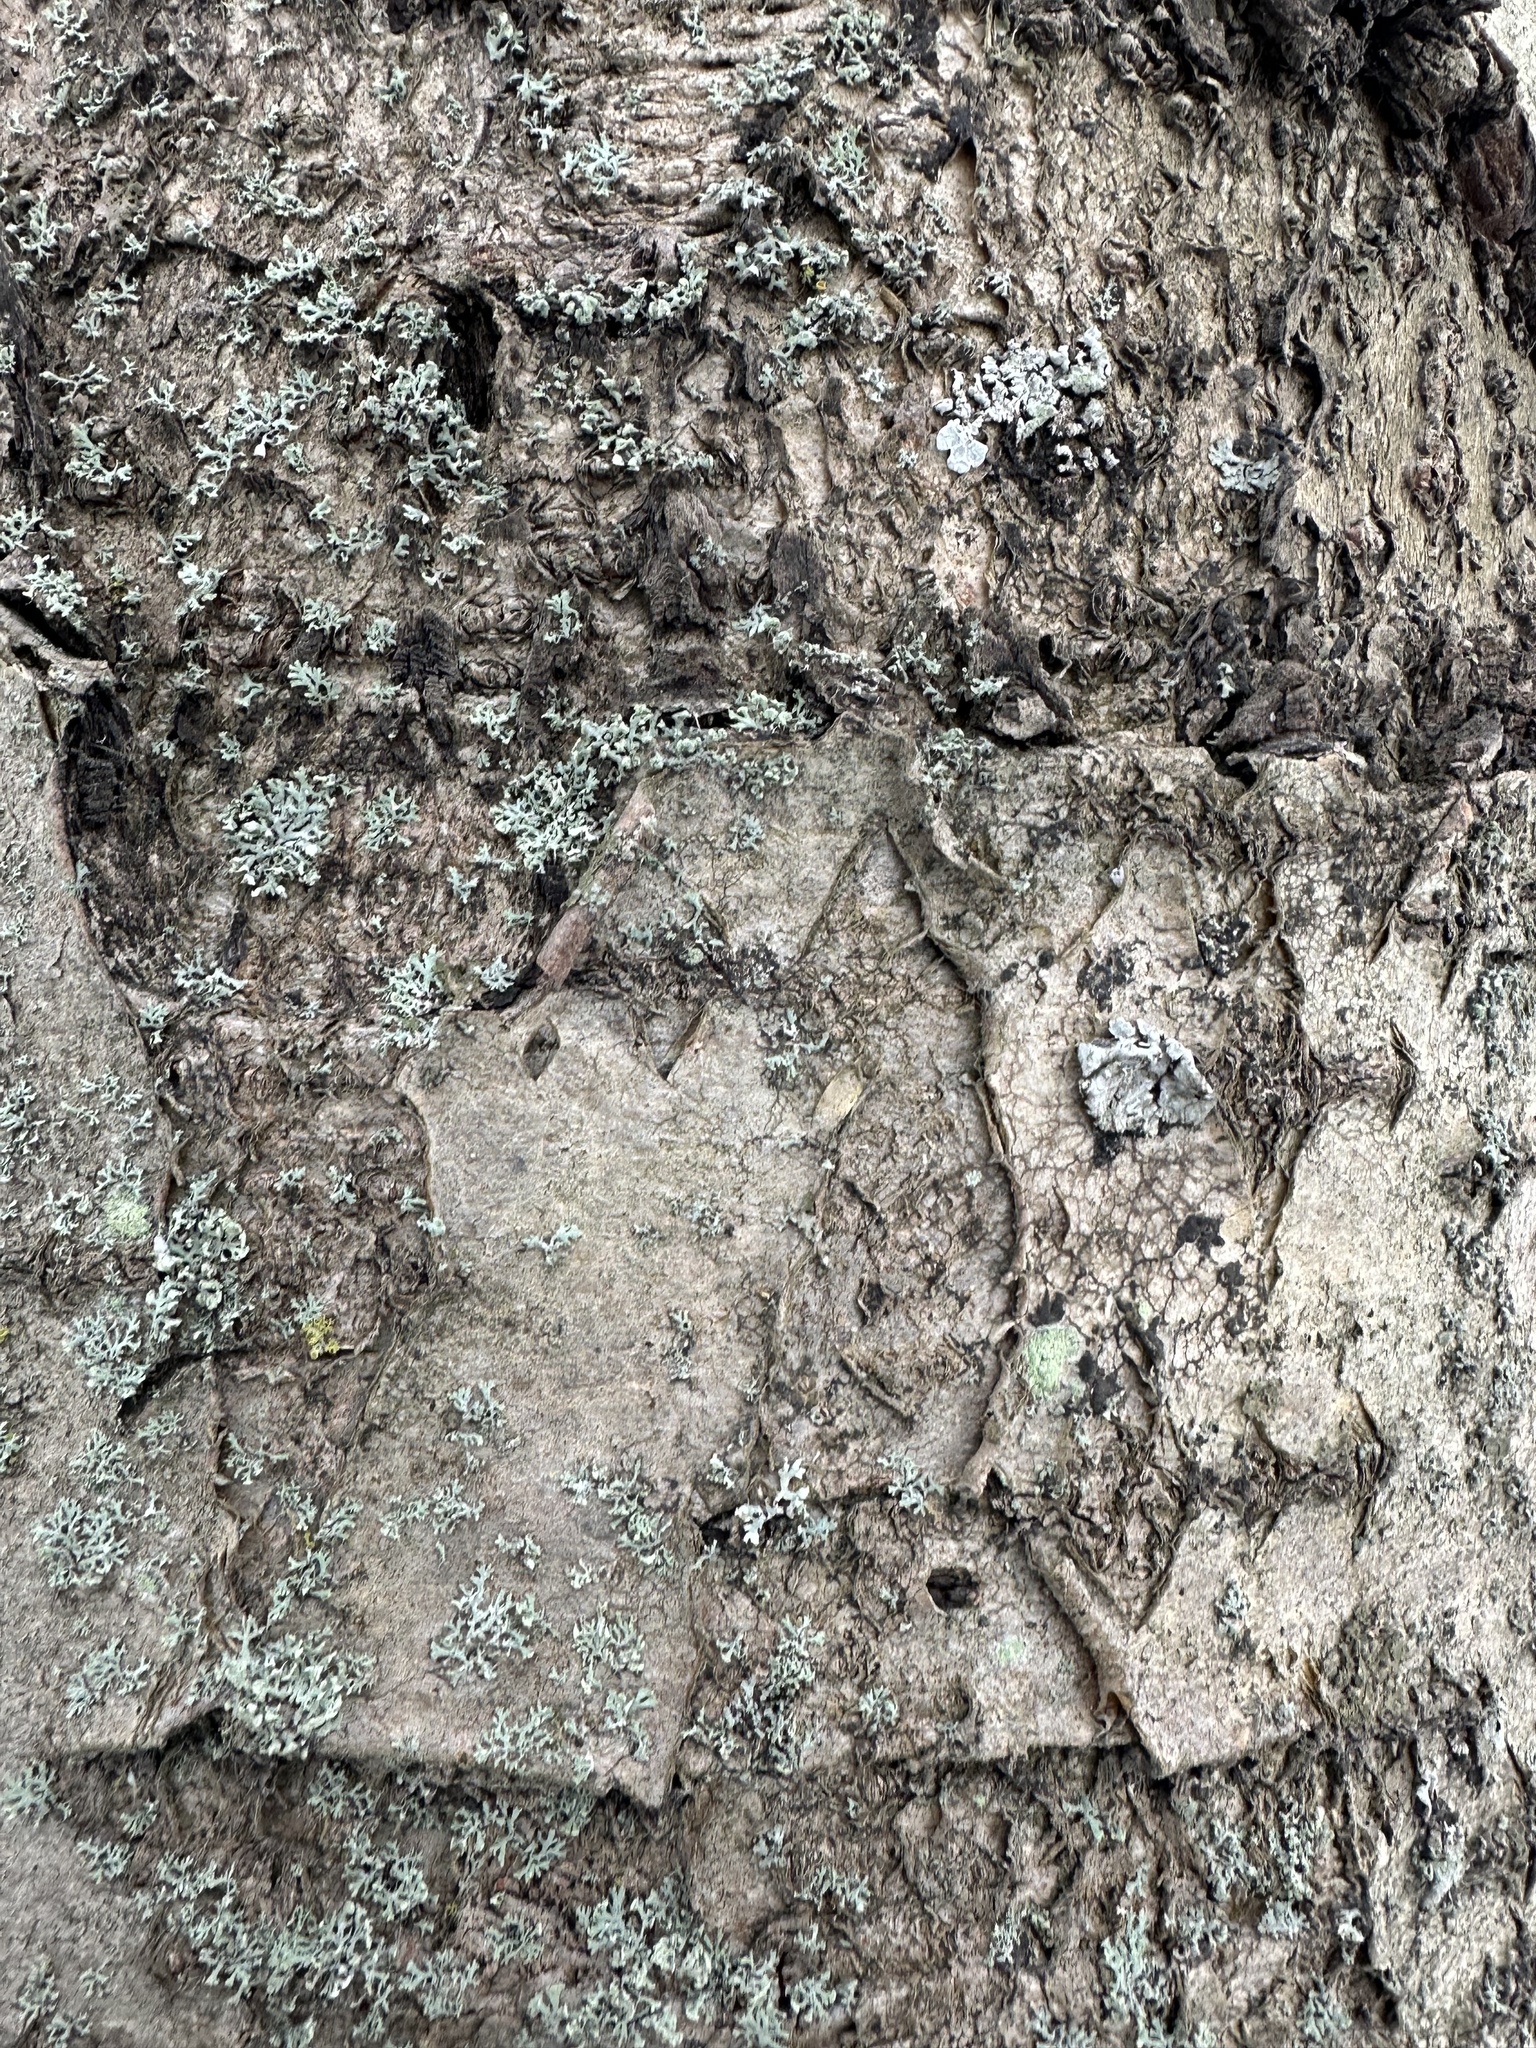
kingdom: Plantae
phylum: Tracheophyta
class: Magnoliopsida
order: Fagales
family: Betulaceae
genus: Betula
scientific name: Betula pubescens
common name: Downy birch
